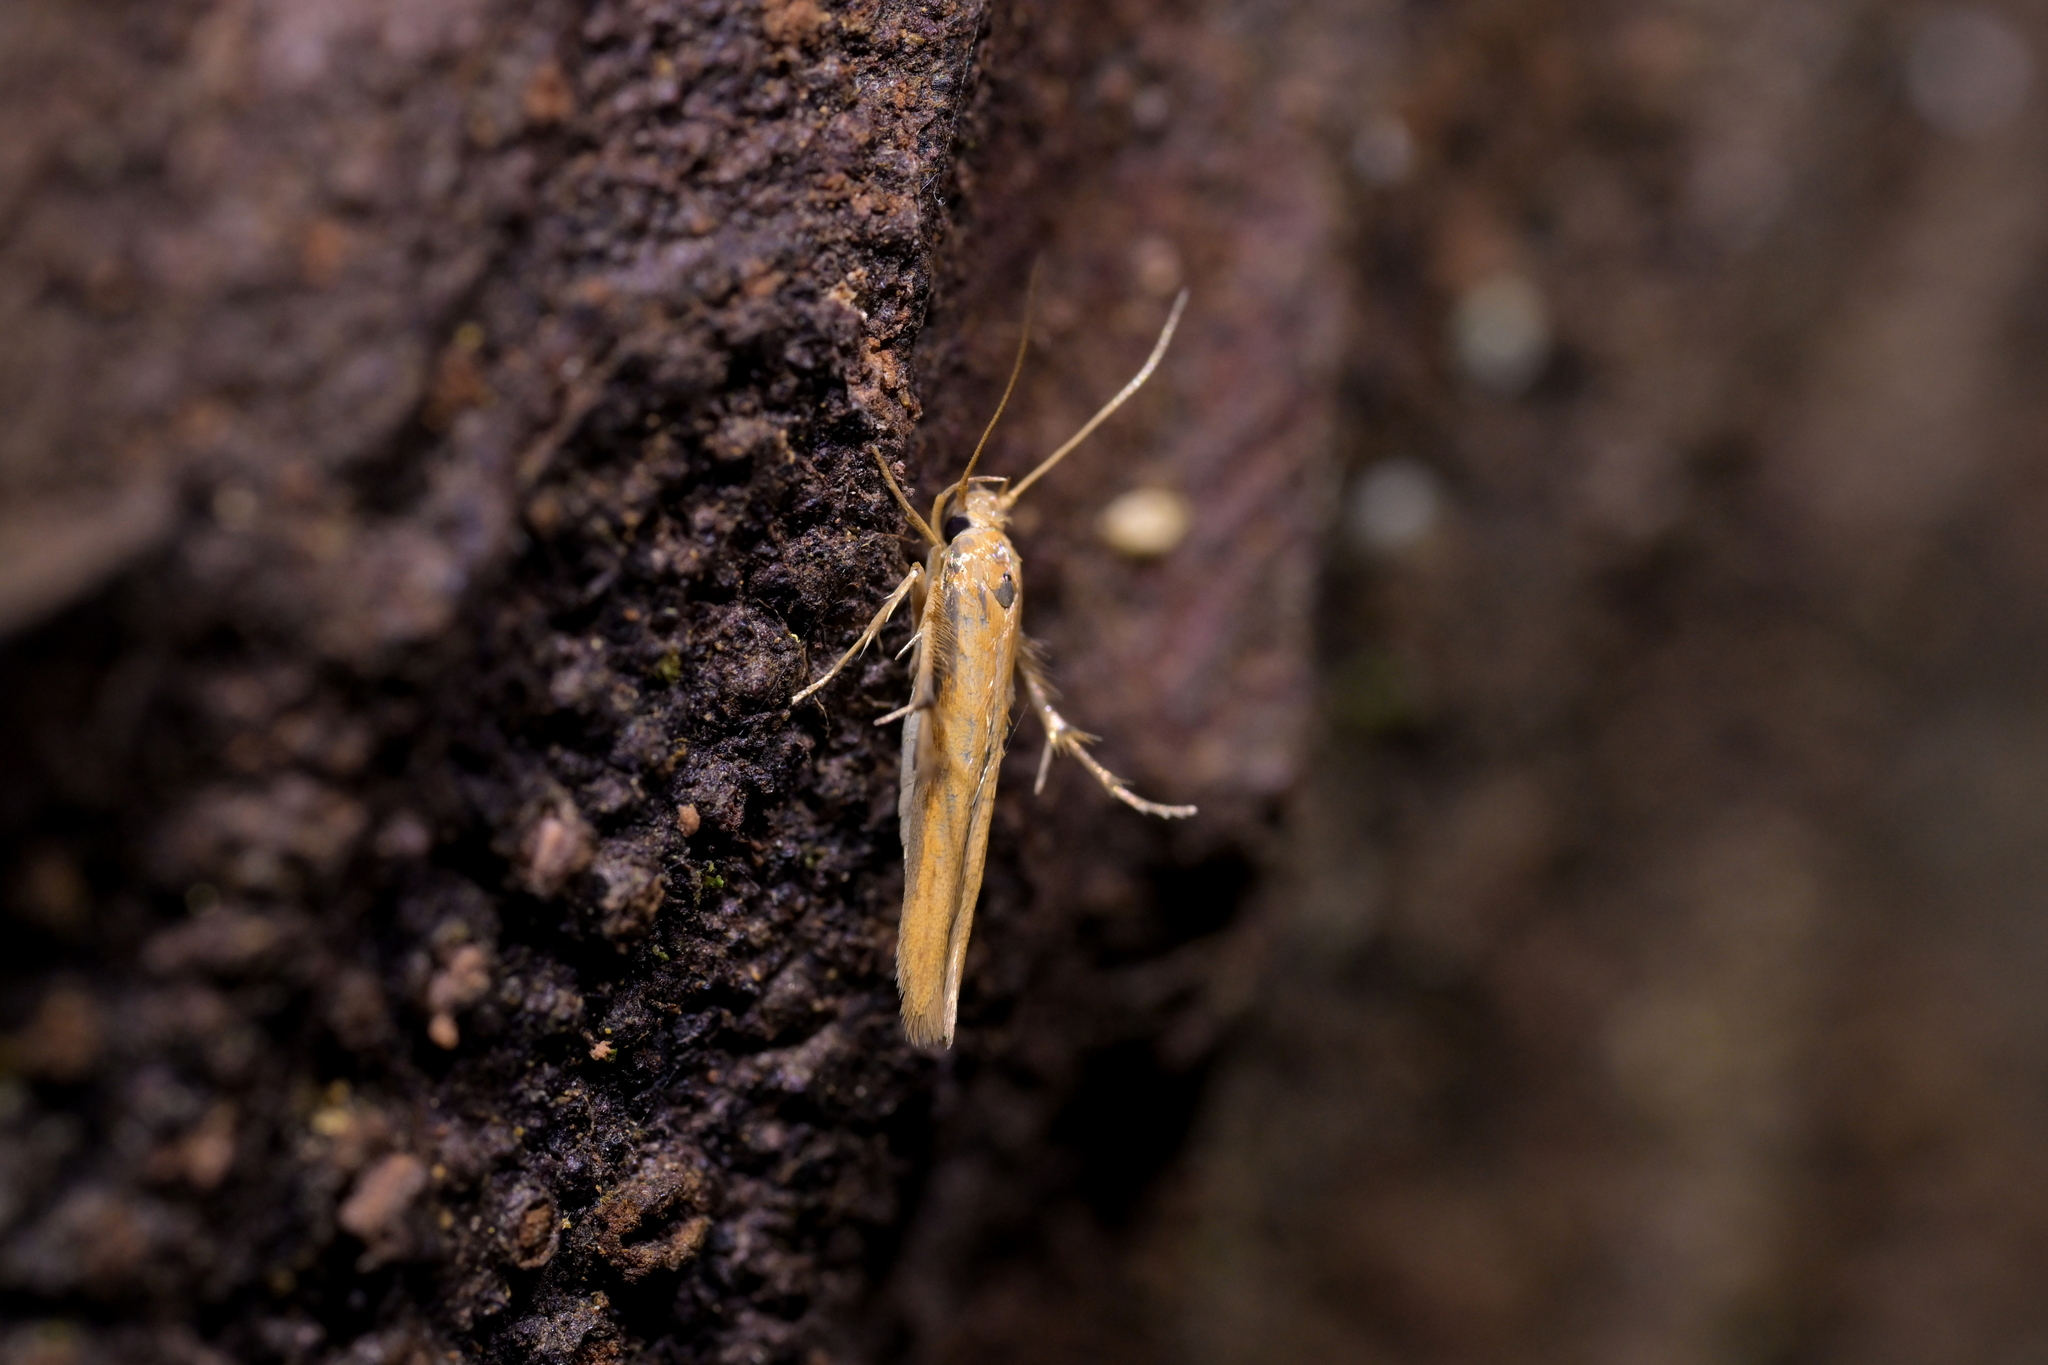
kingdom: Animalia
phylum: Arthropoda
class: Insecta
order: Lepidoptera
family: Stathmopodidae
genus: Stathmopoda
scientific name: Stathmopoda skelloni
